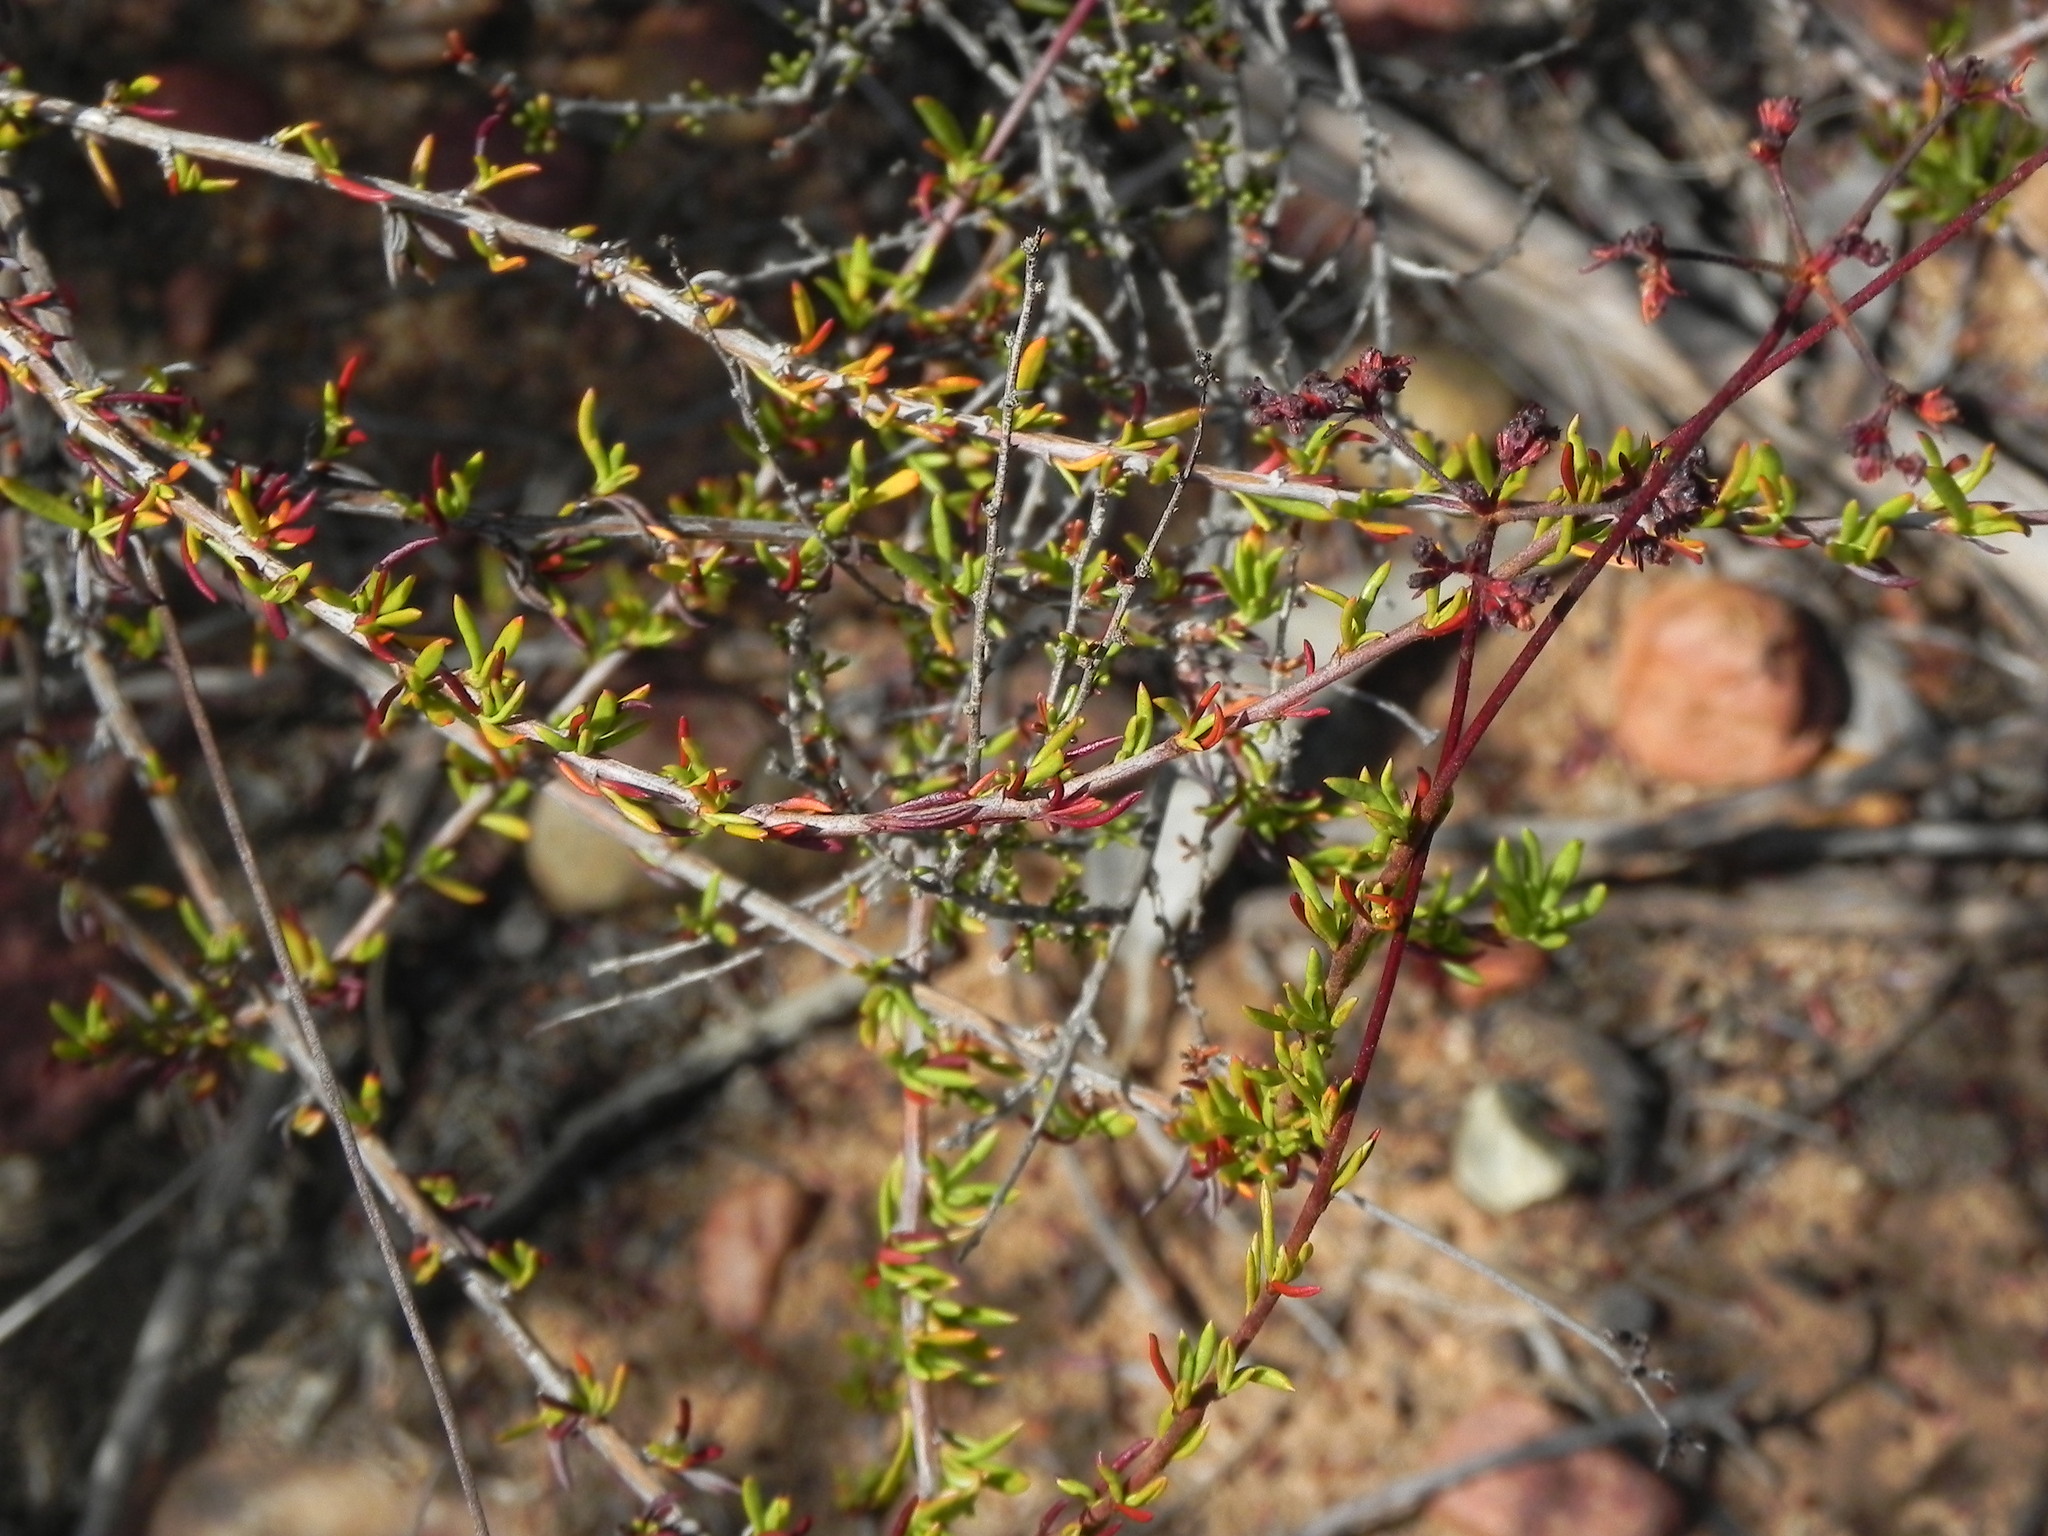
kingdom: Plantae
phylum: Tracheophyta
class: Magnoliopsida
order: Caryophyllales
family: Polygonaceae
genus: Eriogonum
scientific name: Eriogonum fasciculatum
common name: California wild buckwheat
